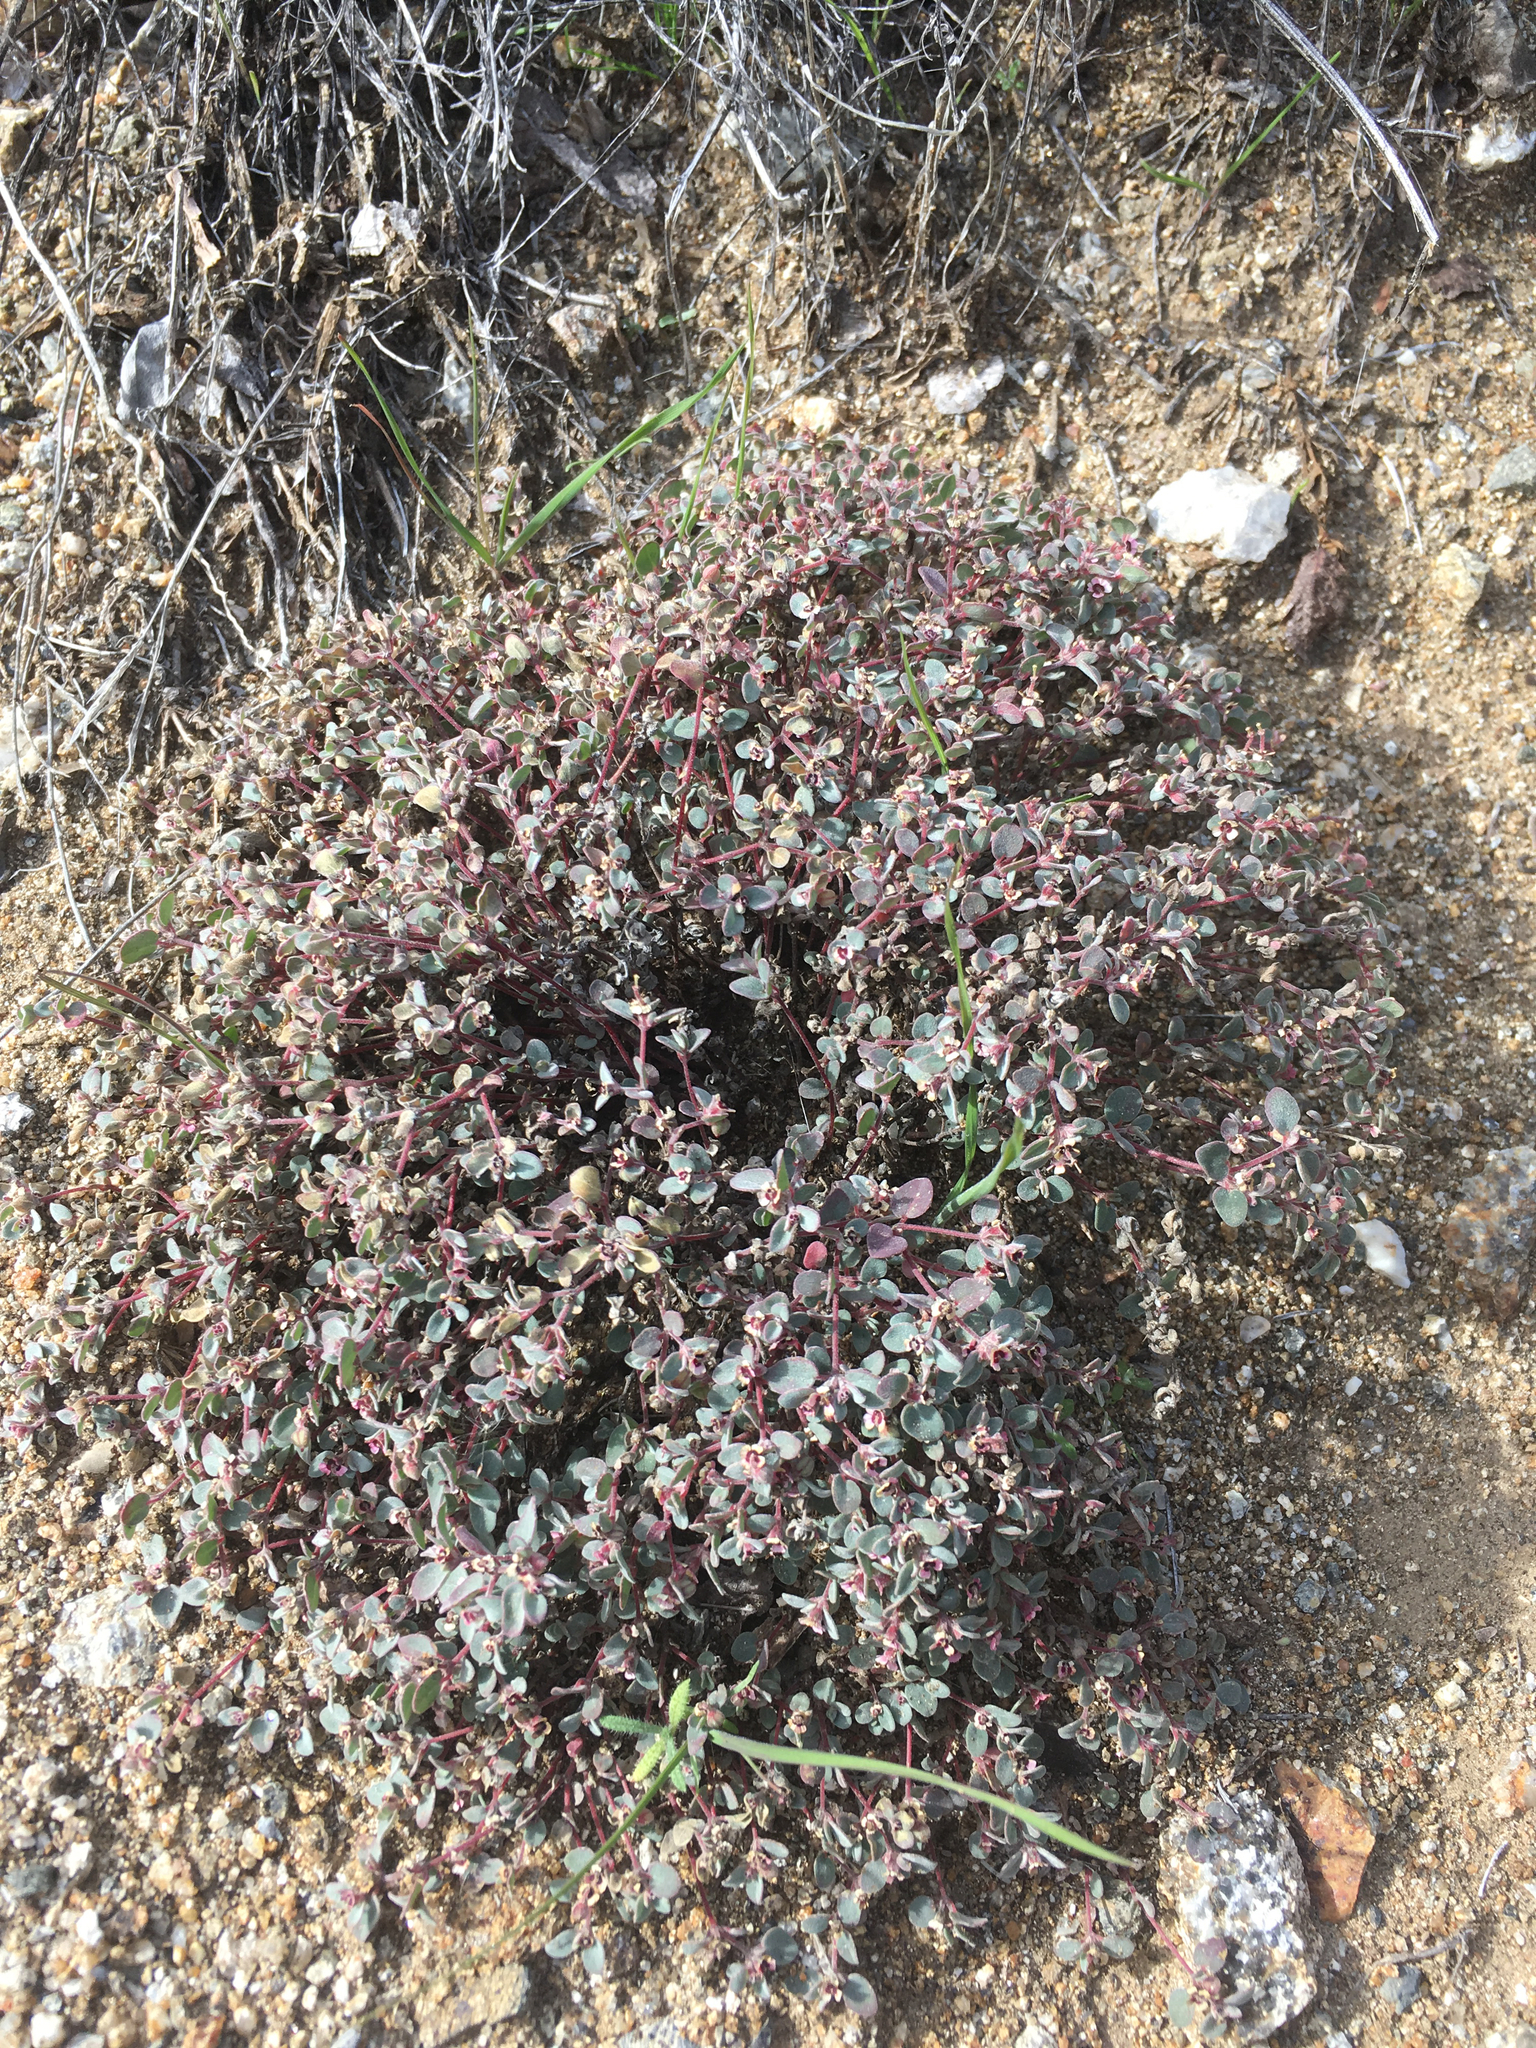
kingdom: Plantae
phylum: Tracheophyta
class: Magnoliopsida
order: Malpighiales
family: Euphorbiaceae
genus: Euphorbia
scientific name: Euphorbia melanadenia
